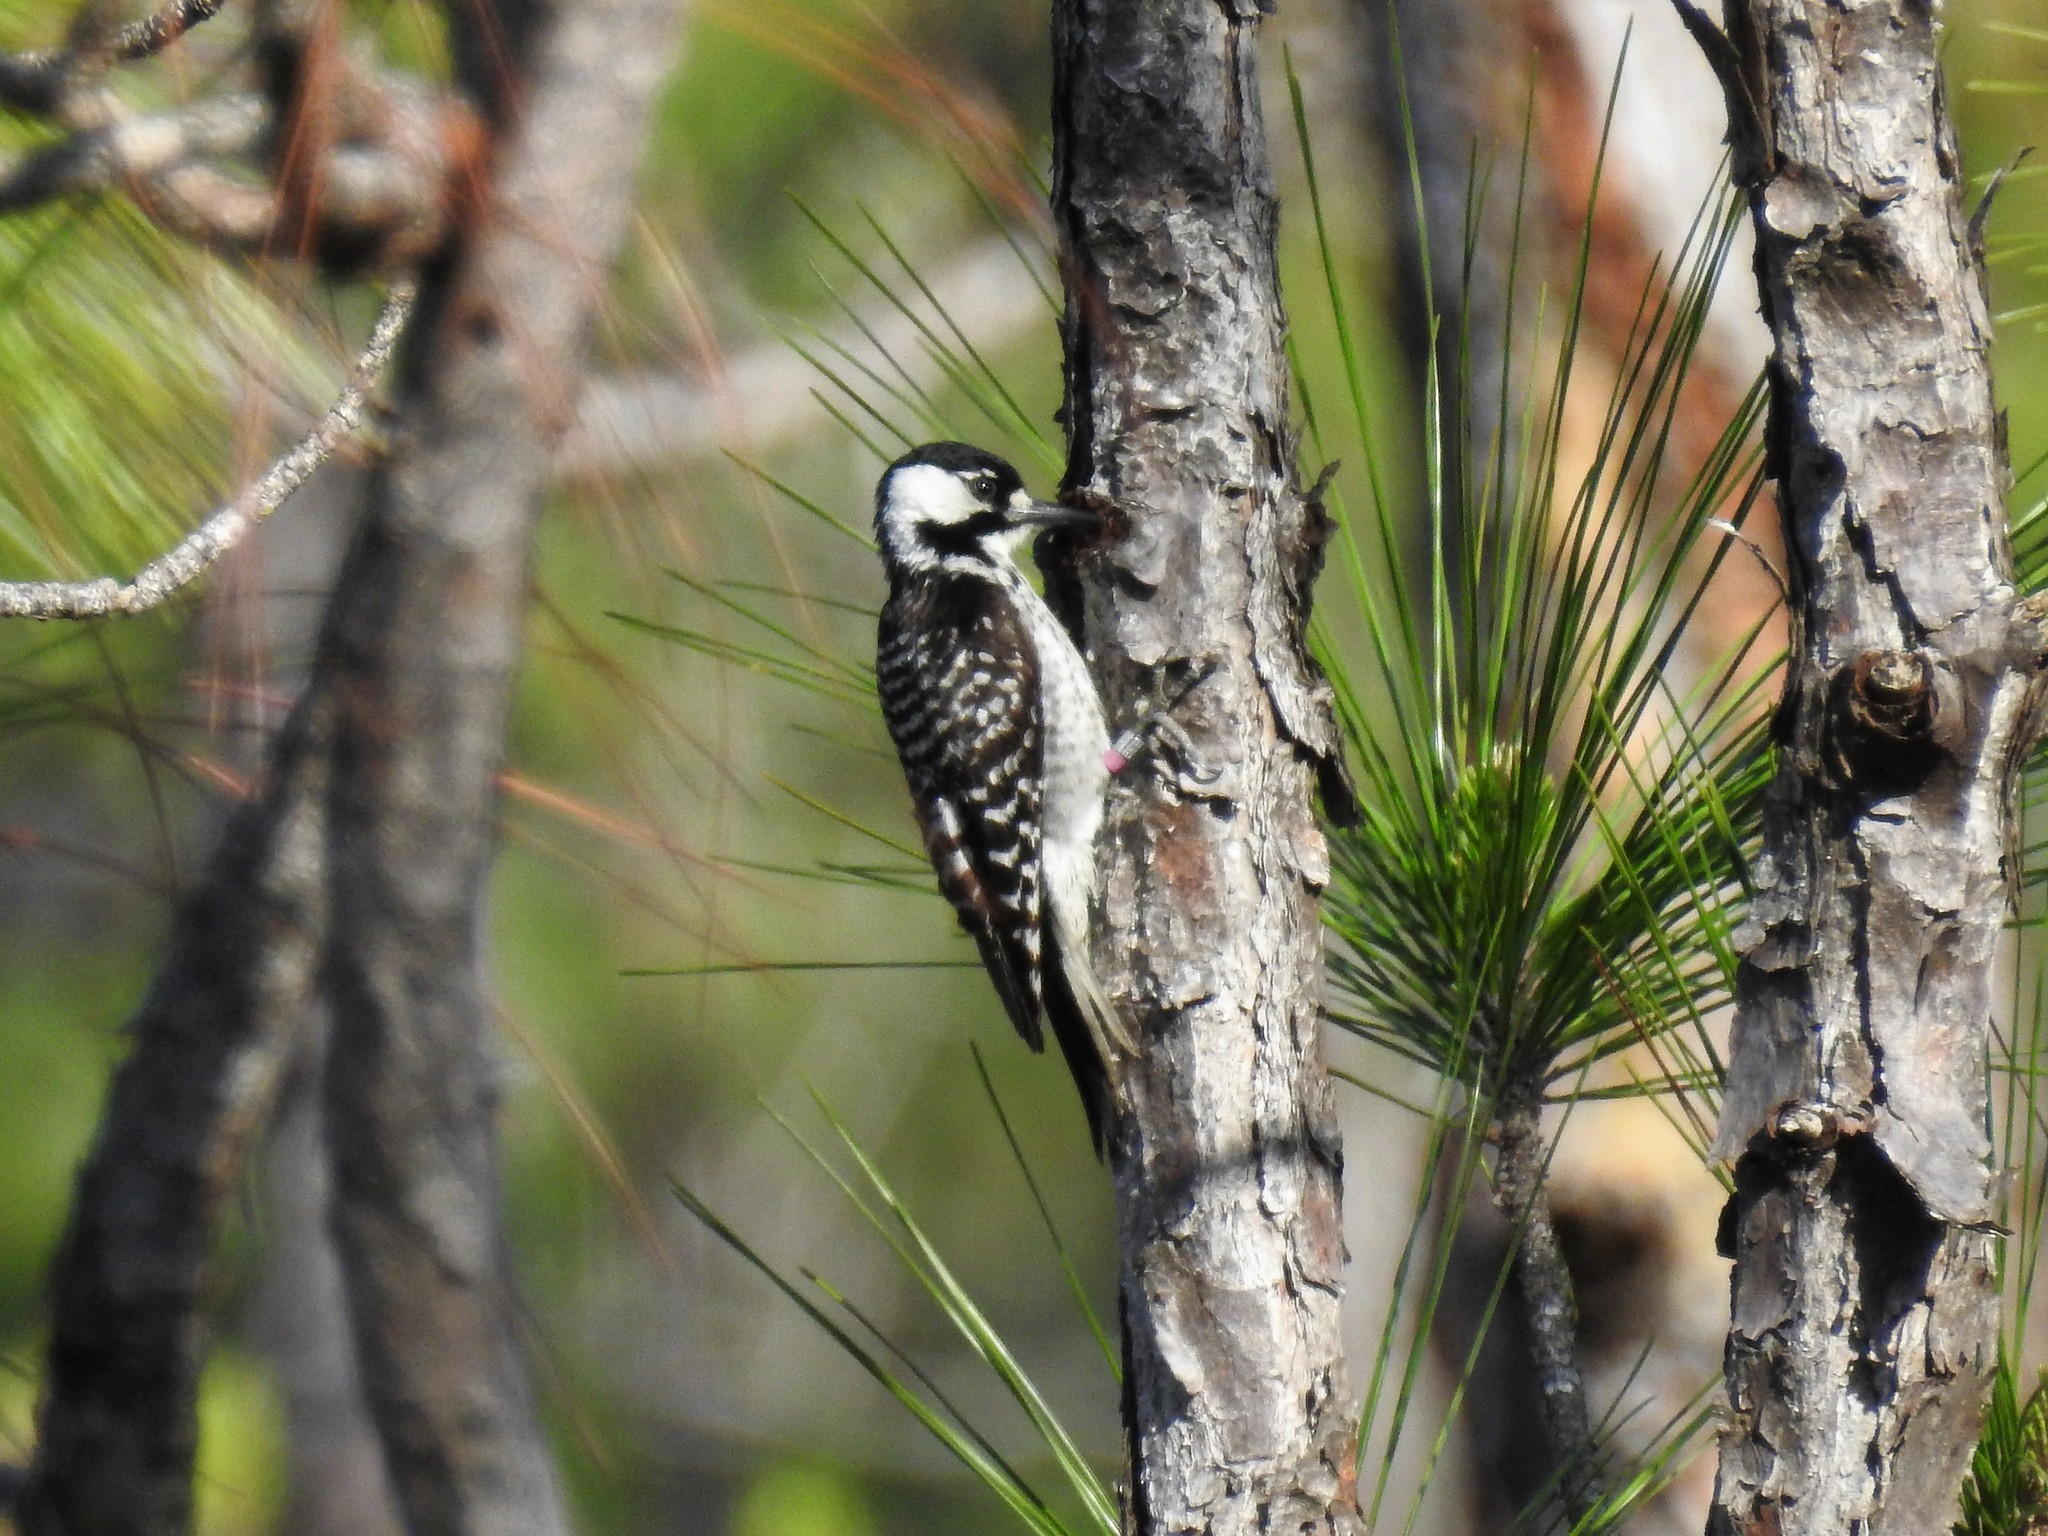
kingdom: Animalia
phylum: Chordata
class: Aves
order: Piciformes
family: Picidae
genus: Leuconotopicus
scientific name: Leuconotopicus borealis
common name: Red-cockaded woodpecker
